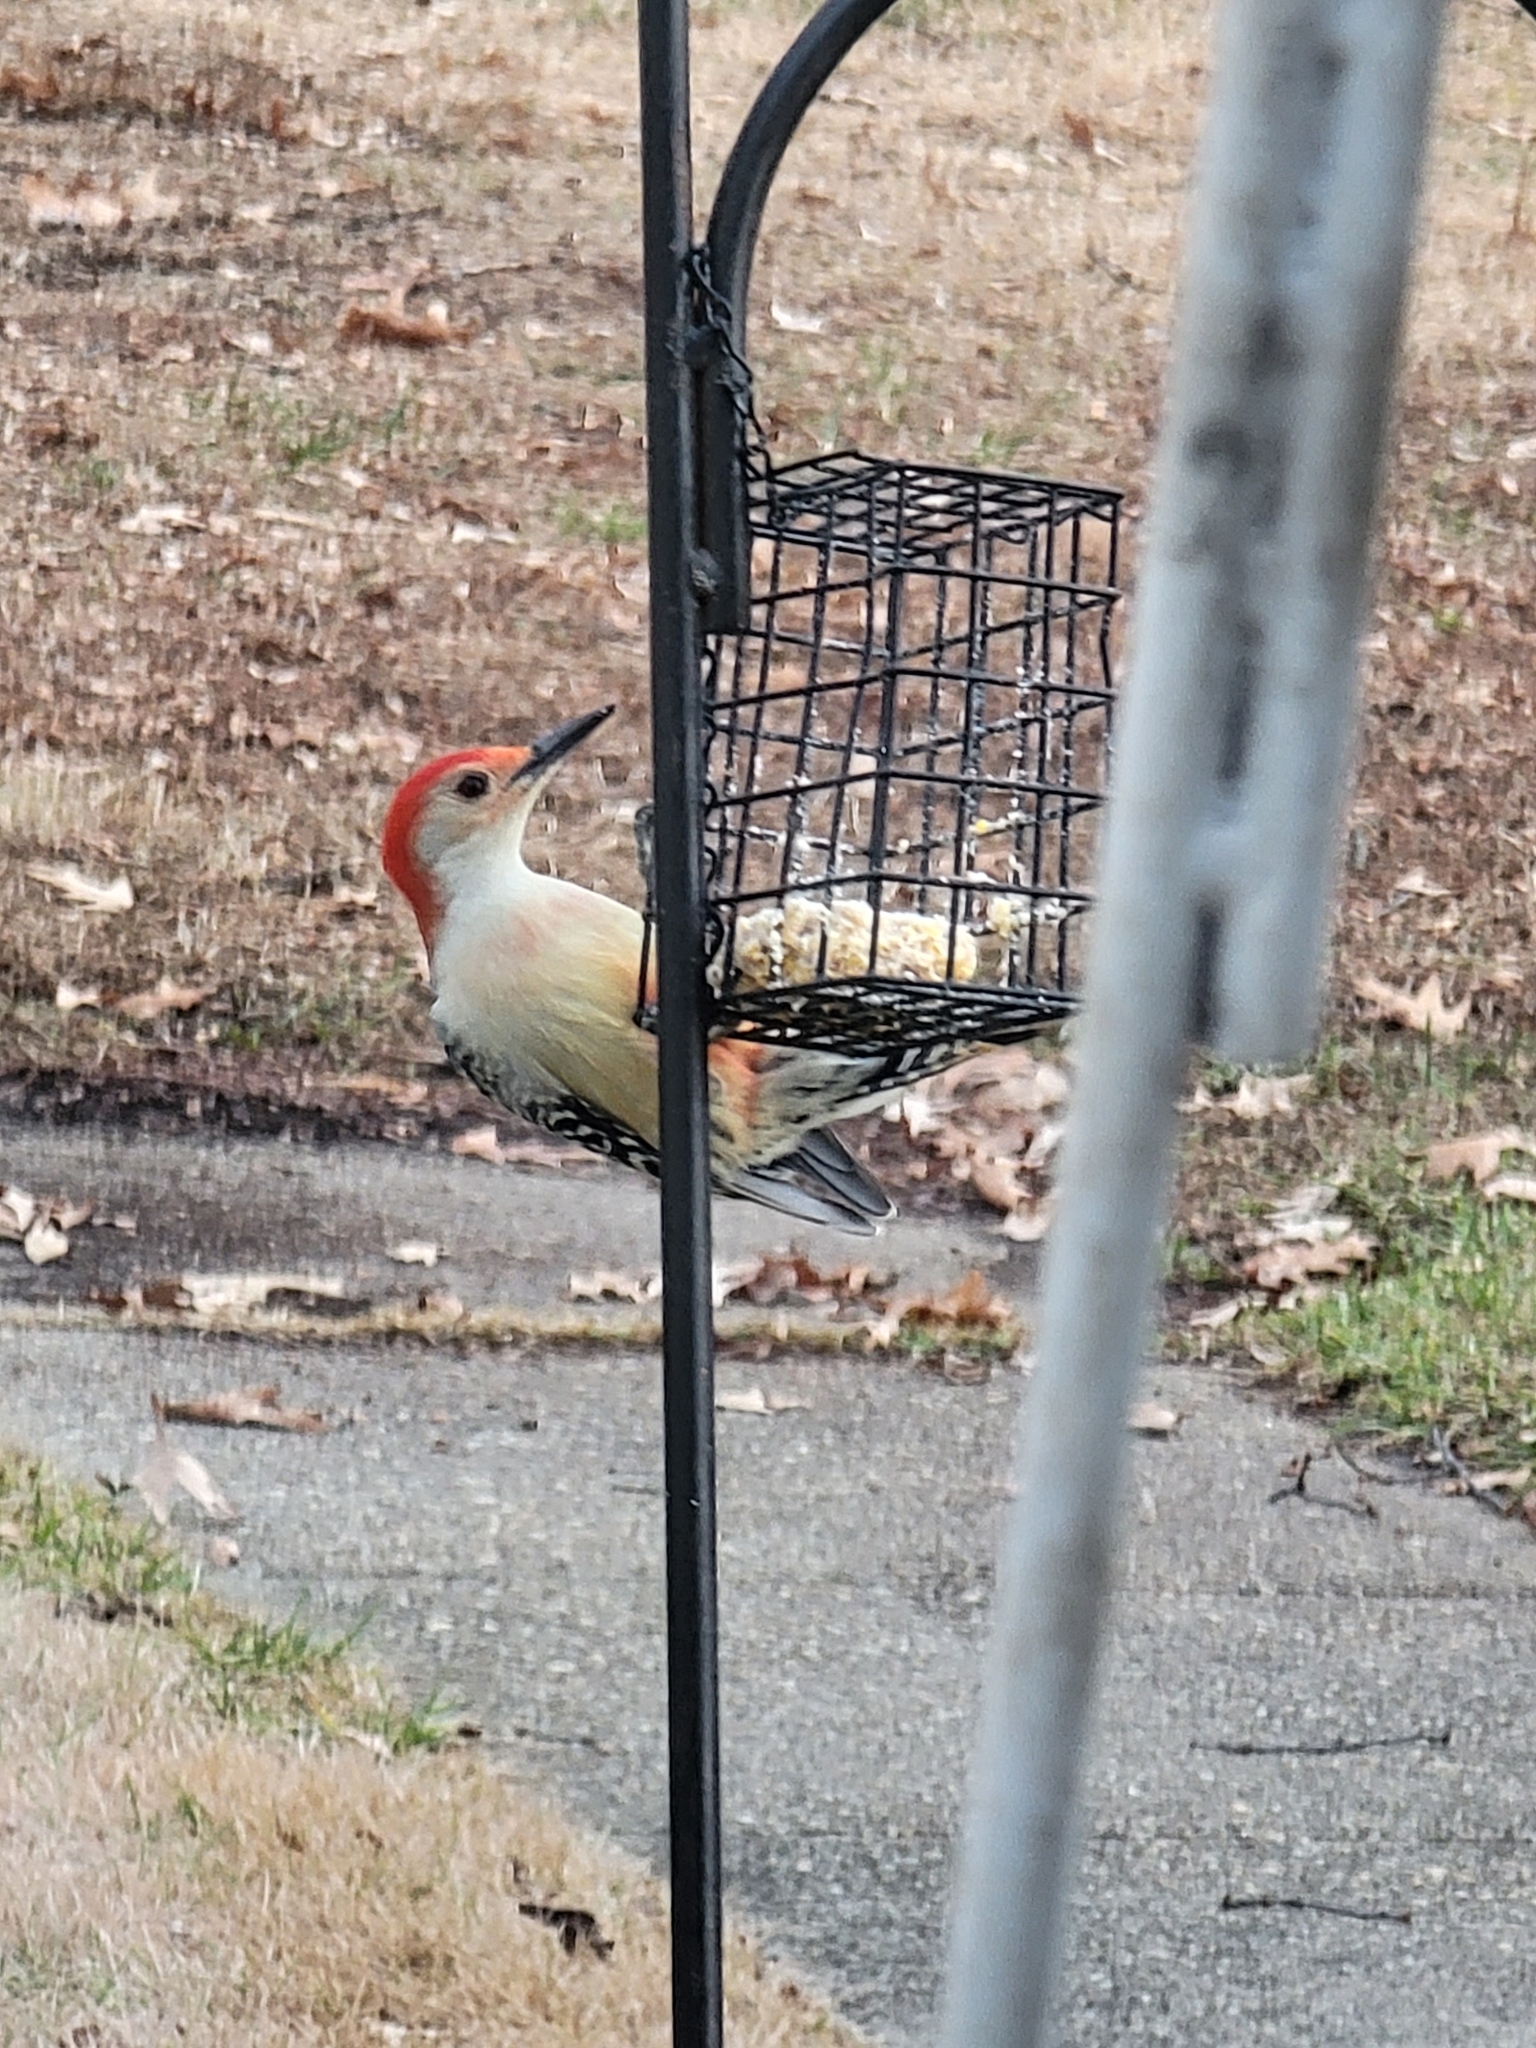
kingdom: Animalia
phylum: Chordata
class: Aves
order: Piciformes
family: Picidae
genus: Melanerpes
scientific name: Melanerpes carolinus
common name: Red-bellied woodpecker
